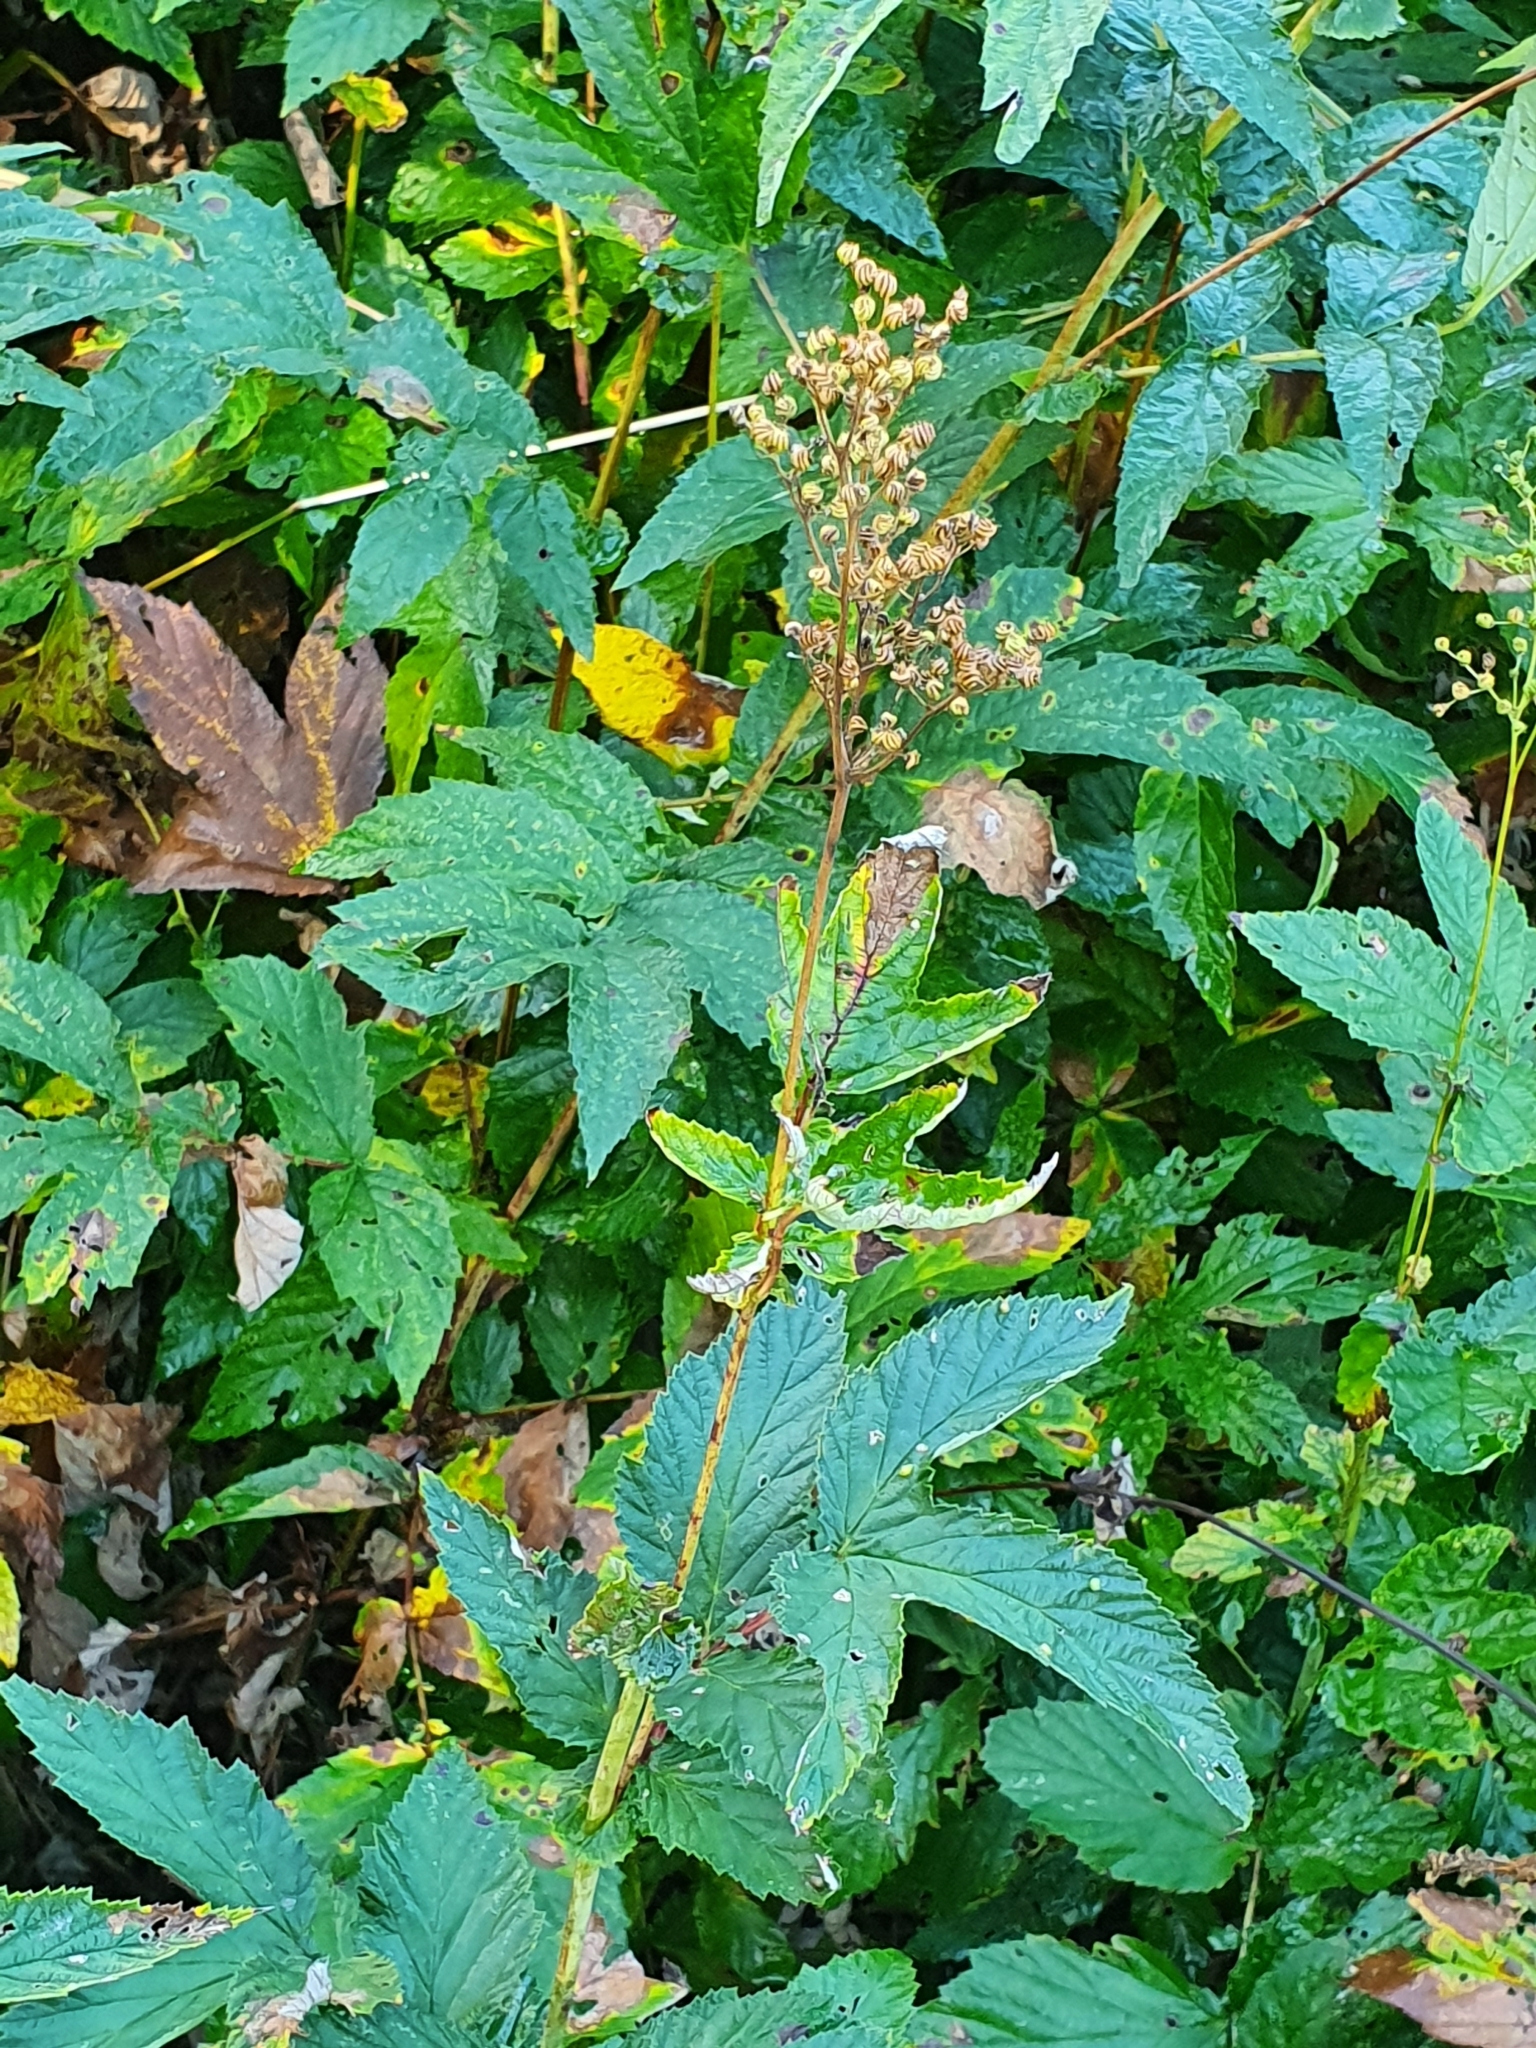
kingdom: Plantae
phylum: Tracheophyta
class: Magnoliopsida
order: Rosales
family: Rosaceae
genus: Filipendula
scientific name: Filipendula ulmaria
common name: Meadowsweet
